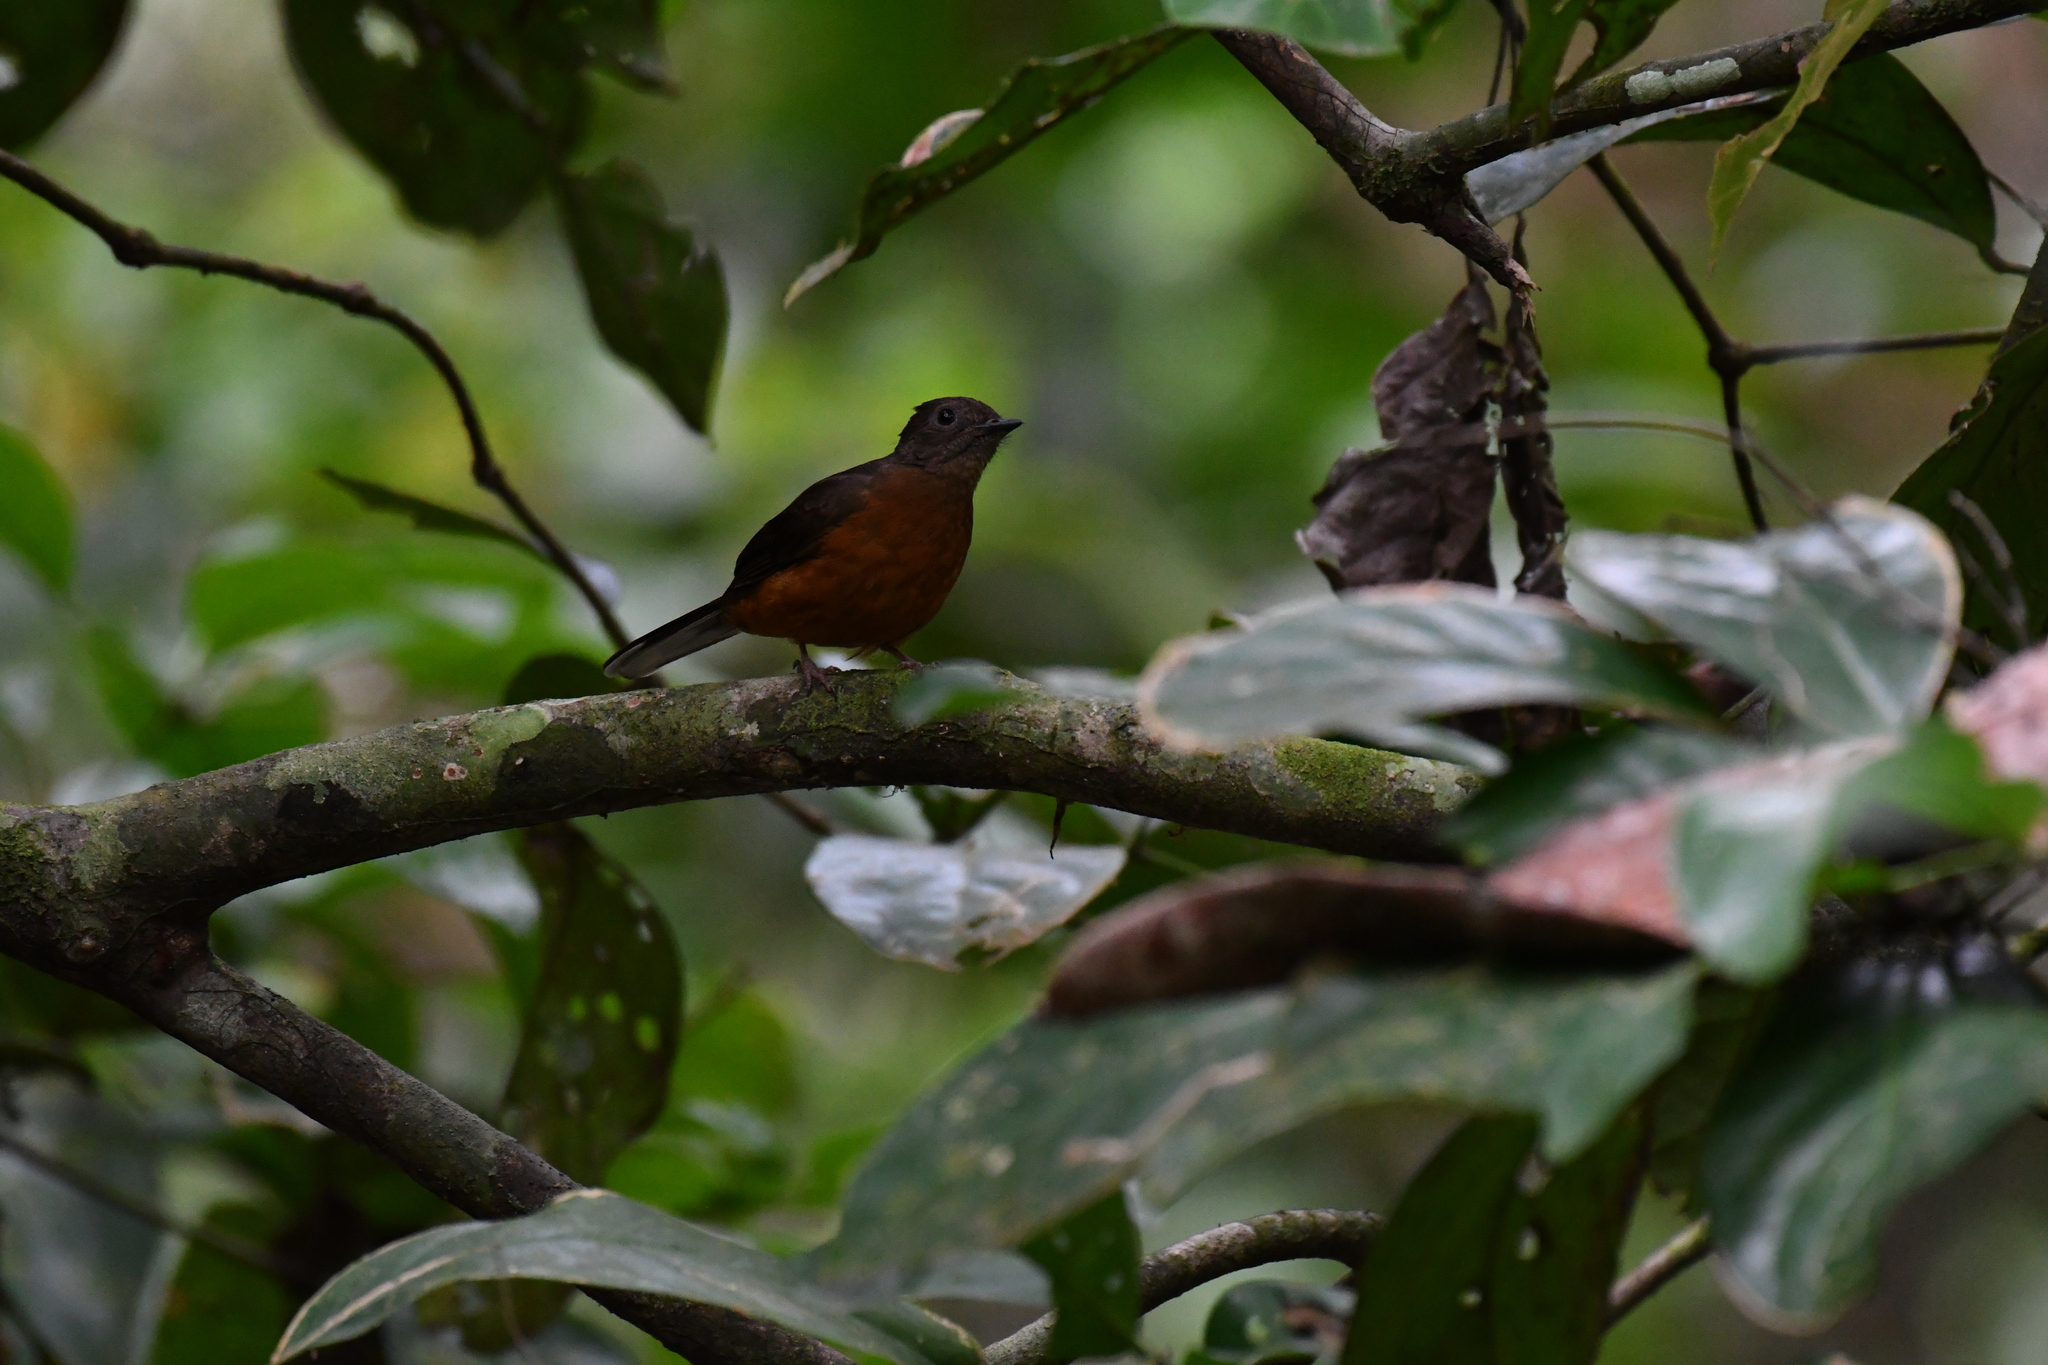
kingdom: Animalia
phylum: Chordata
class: Aves
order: Passeriformes
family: Turdidae
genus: Neocossyphus
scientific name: Neocossyphus poensis
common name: White-tailed rufous thrush
